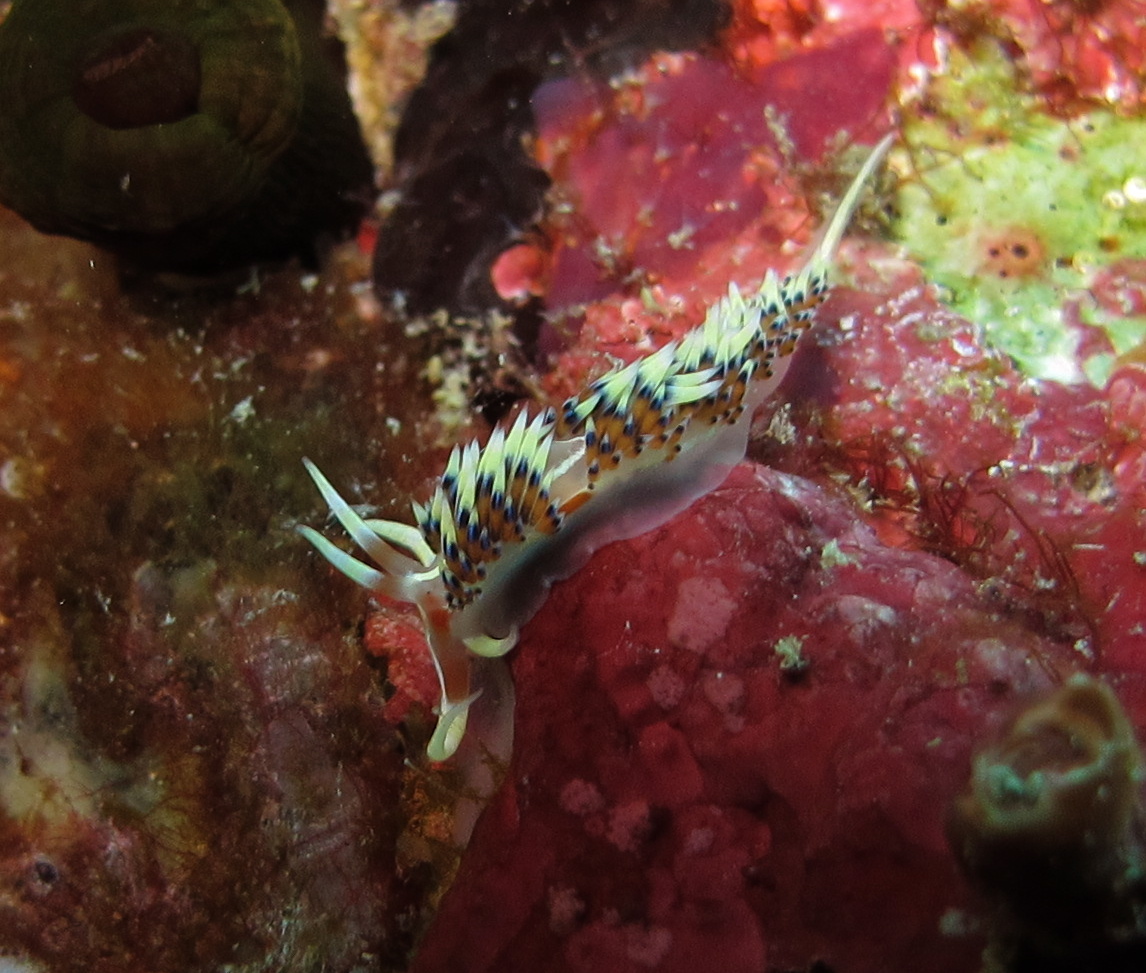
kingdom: Animalia
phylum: Mollusca
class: Gastropoda
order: Nudibranchia
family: Facelinidae
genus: Caloria
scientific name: Caloria indica
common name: Sea slug
